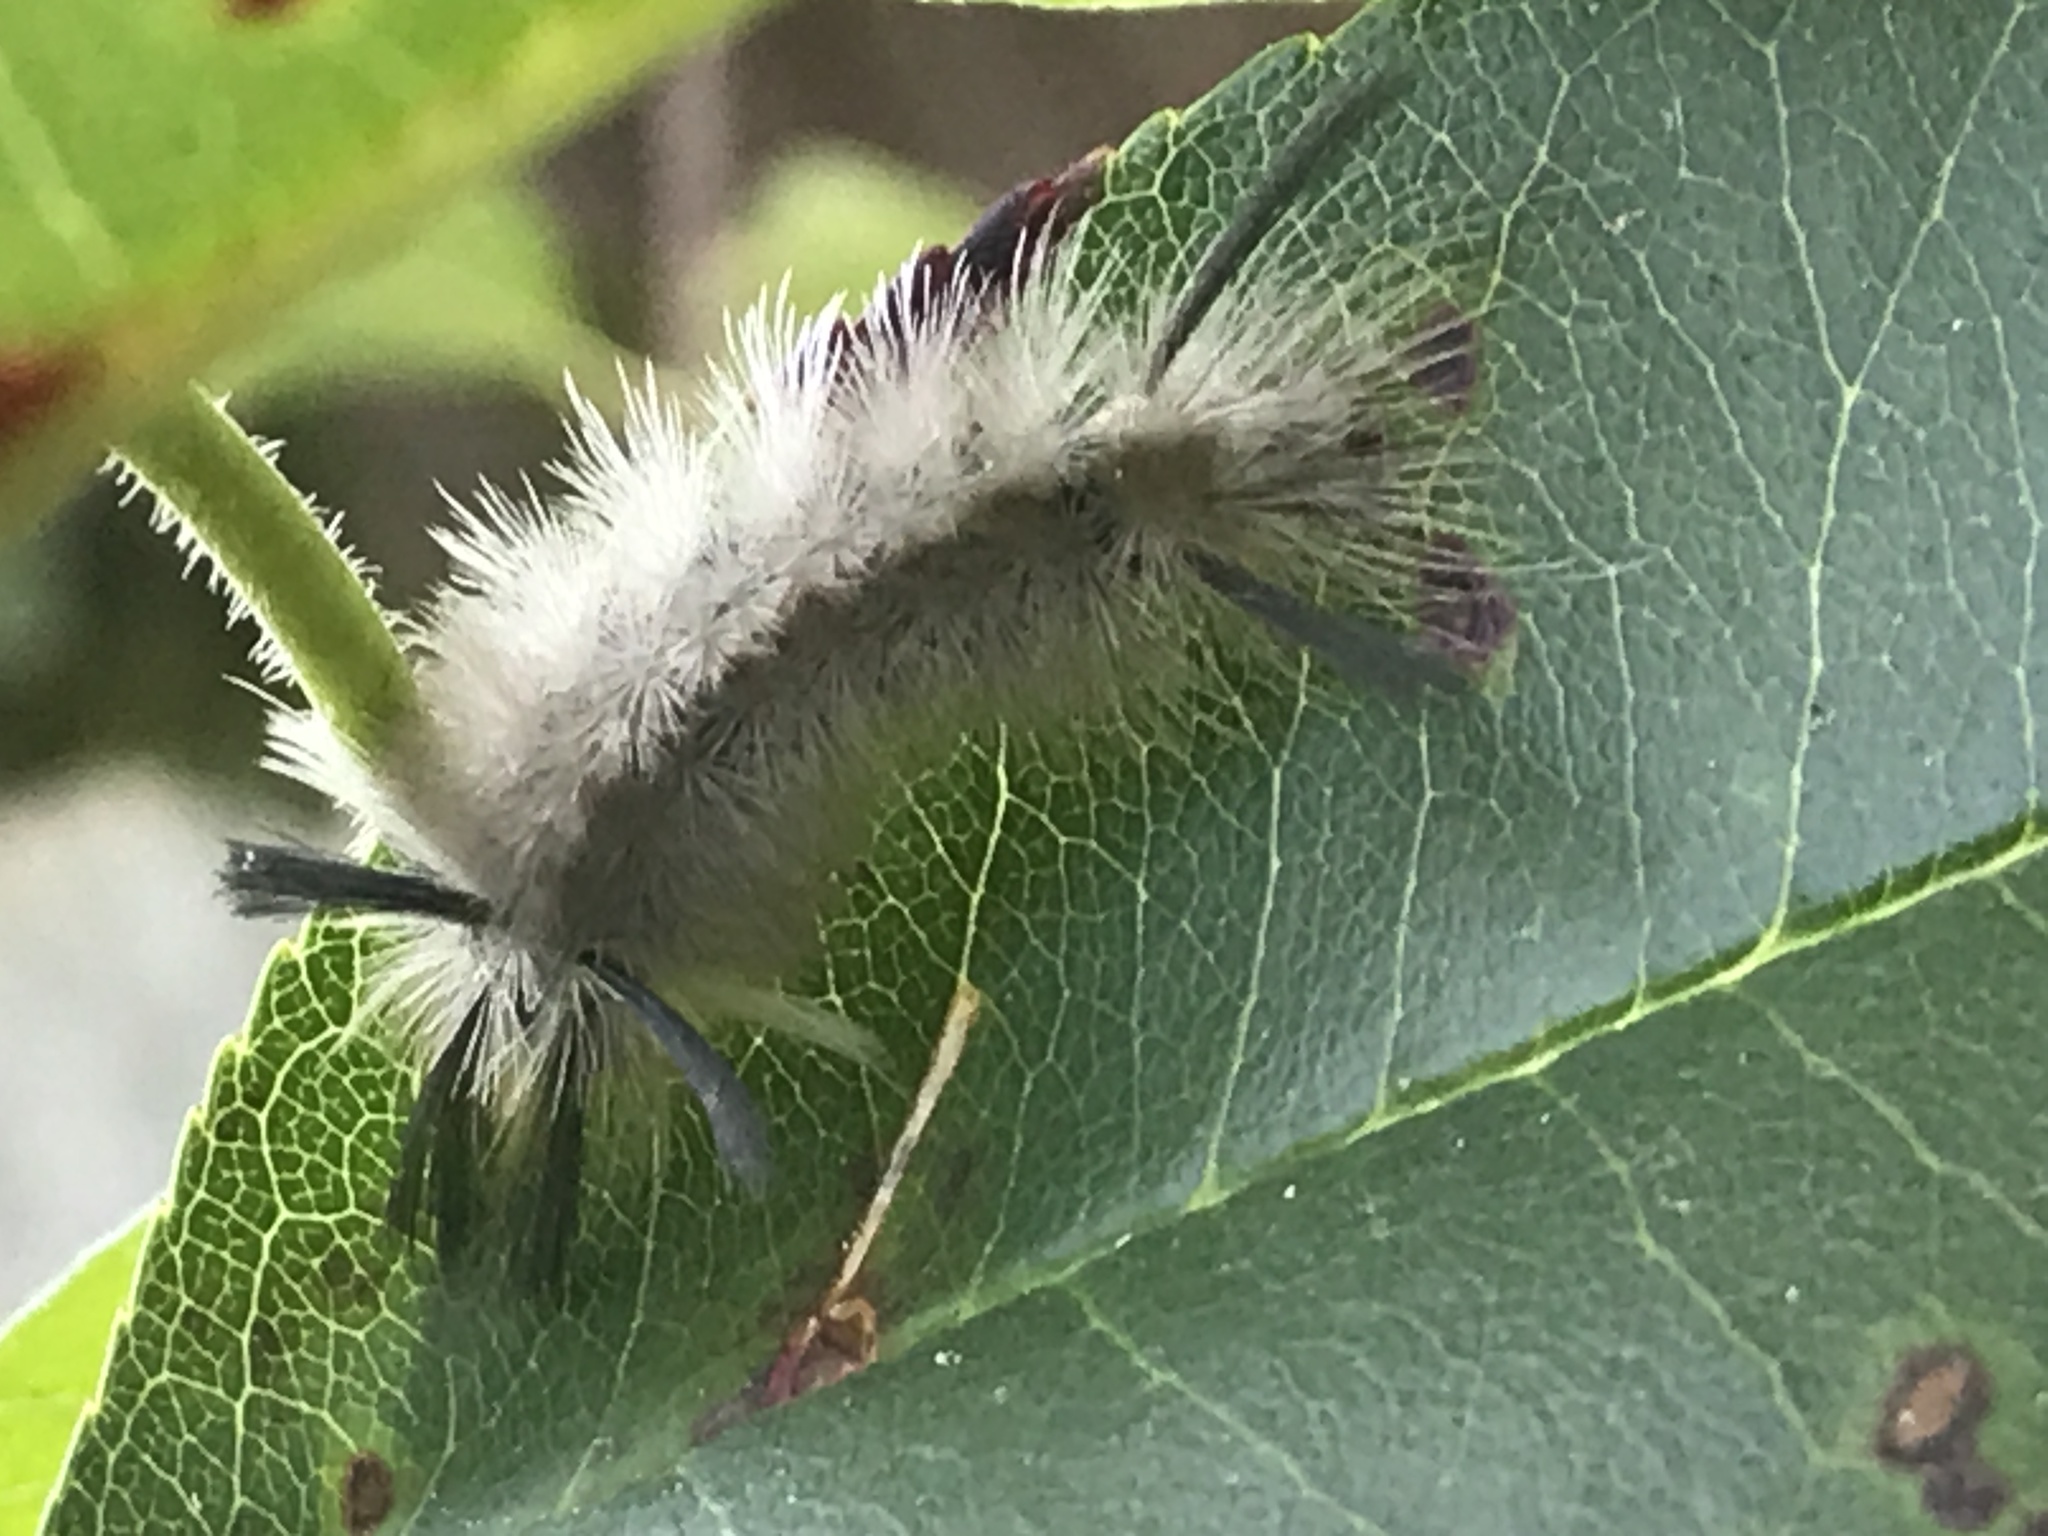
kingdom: Animalia
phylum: Arthropoda
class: Insecta
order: Lepidoptera
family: Erebidae
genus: Halysidota
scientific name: Halysidota tessellaris
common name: Banded tussock moth
